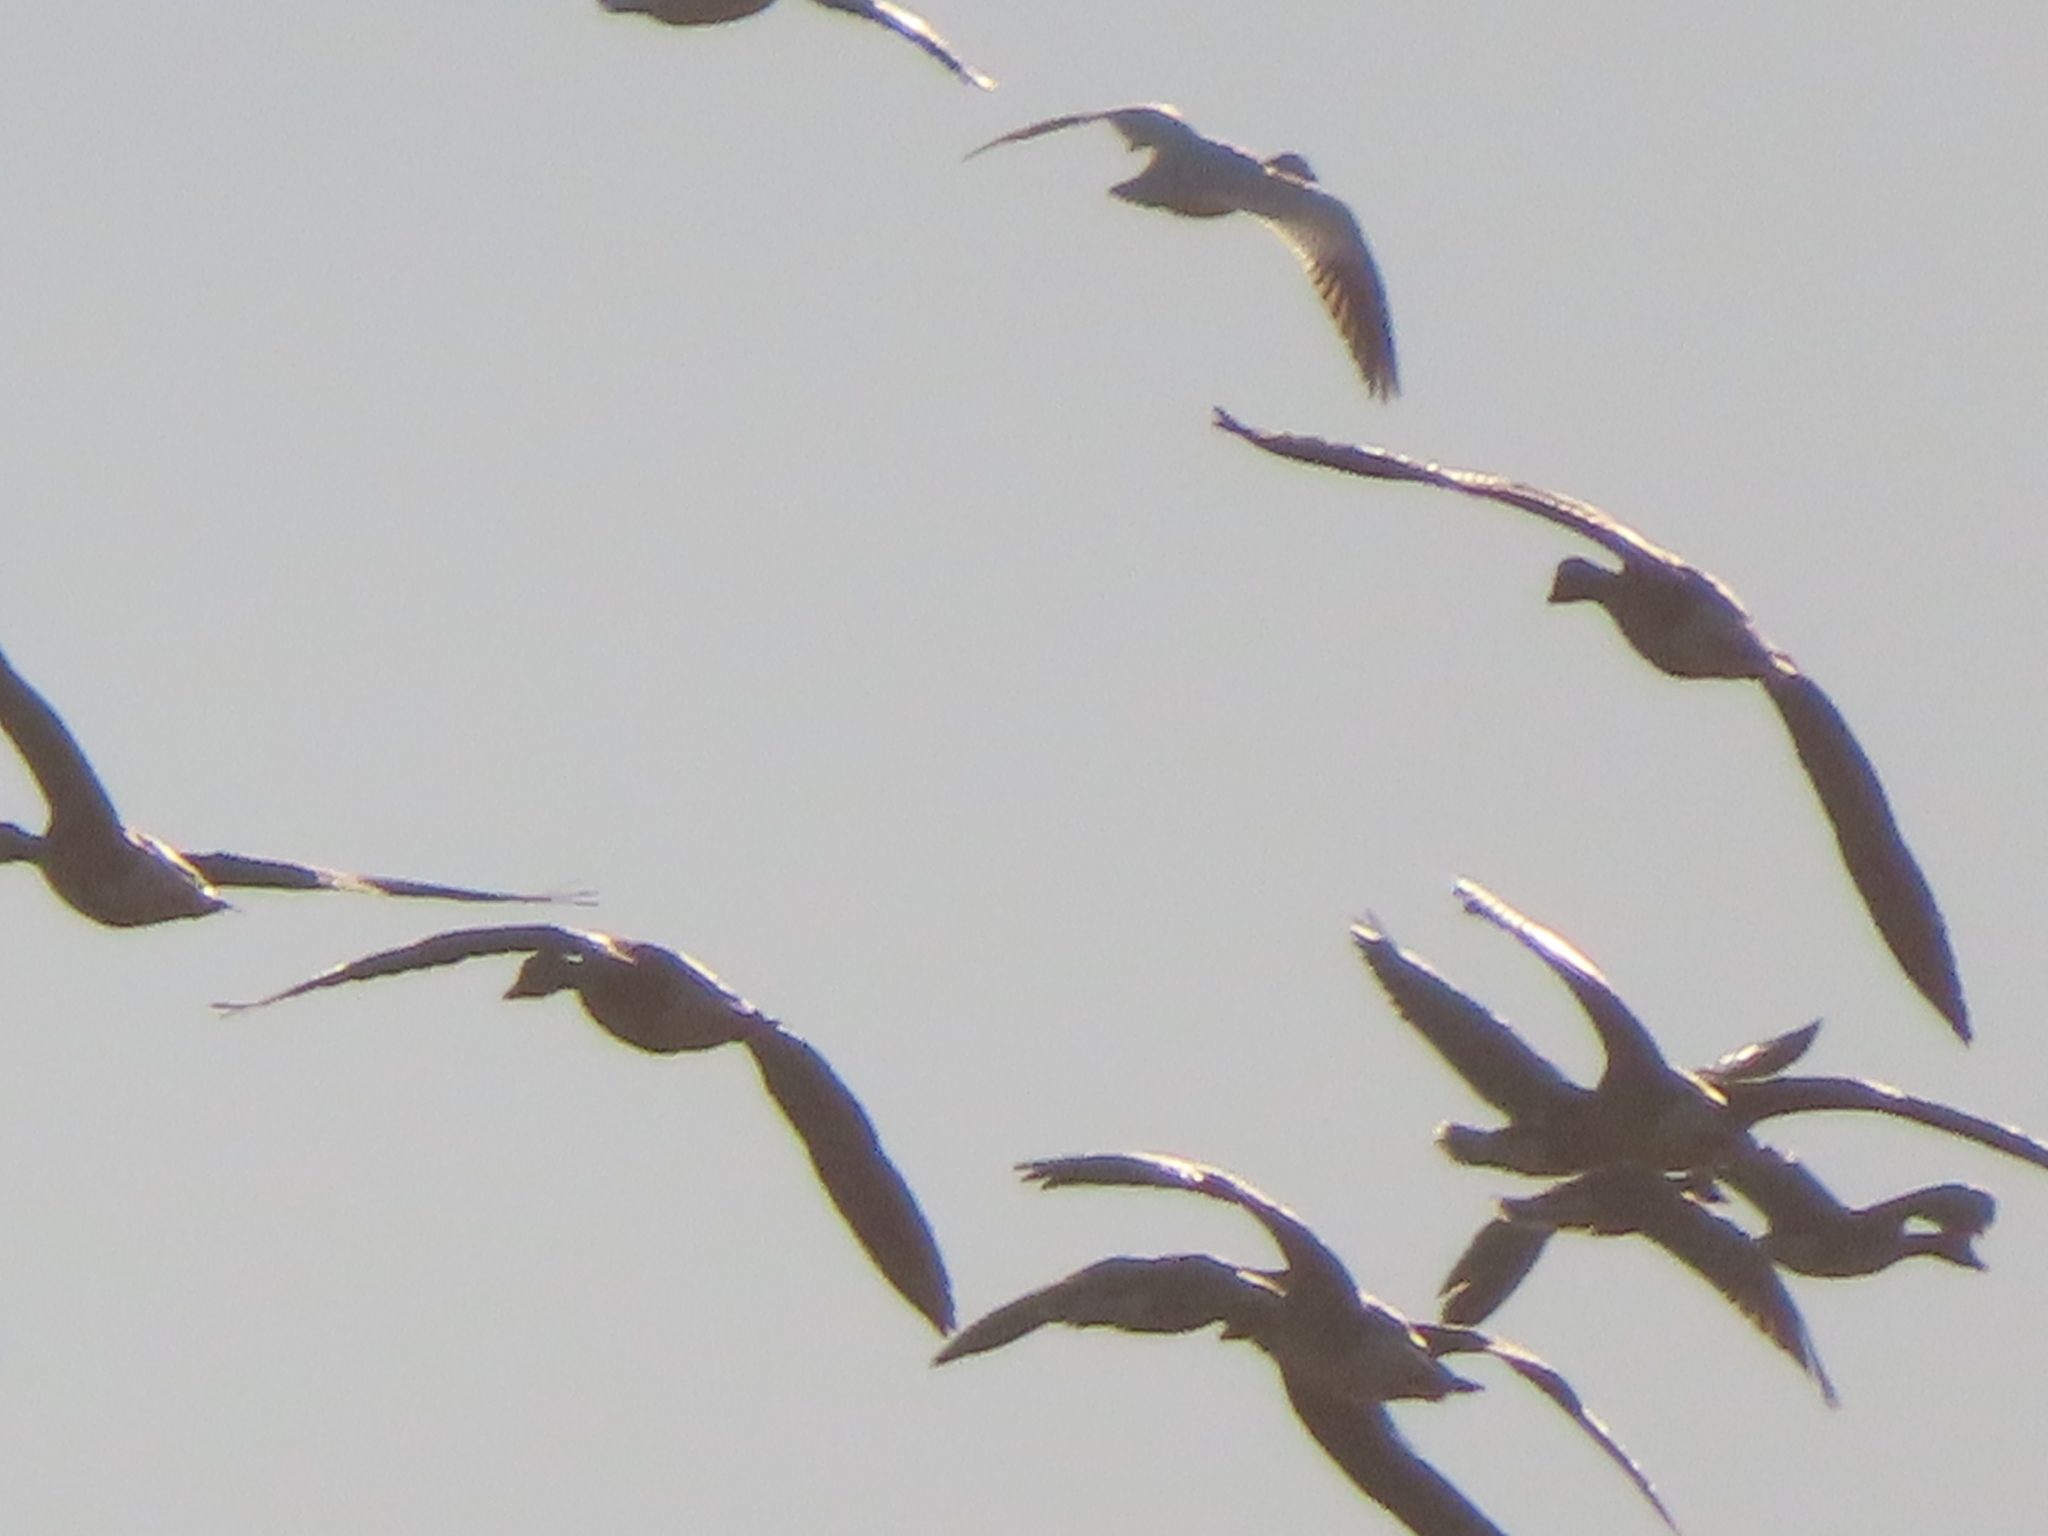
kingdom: Animalia
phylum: Chordata
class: Aves
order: Anseriformes
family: Anatidae
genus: Anser
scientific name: Anser caerulescens
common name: Snow goose
